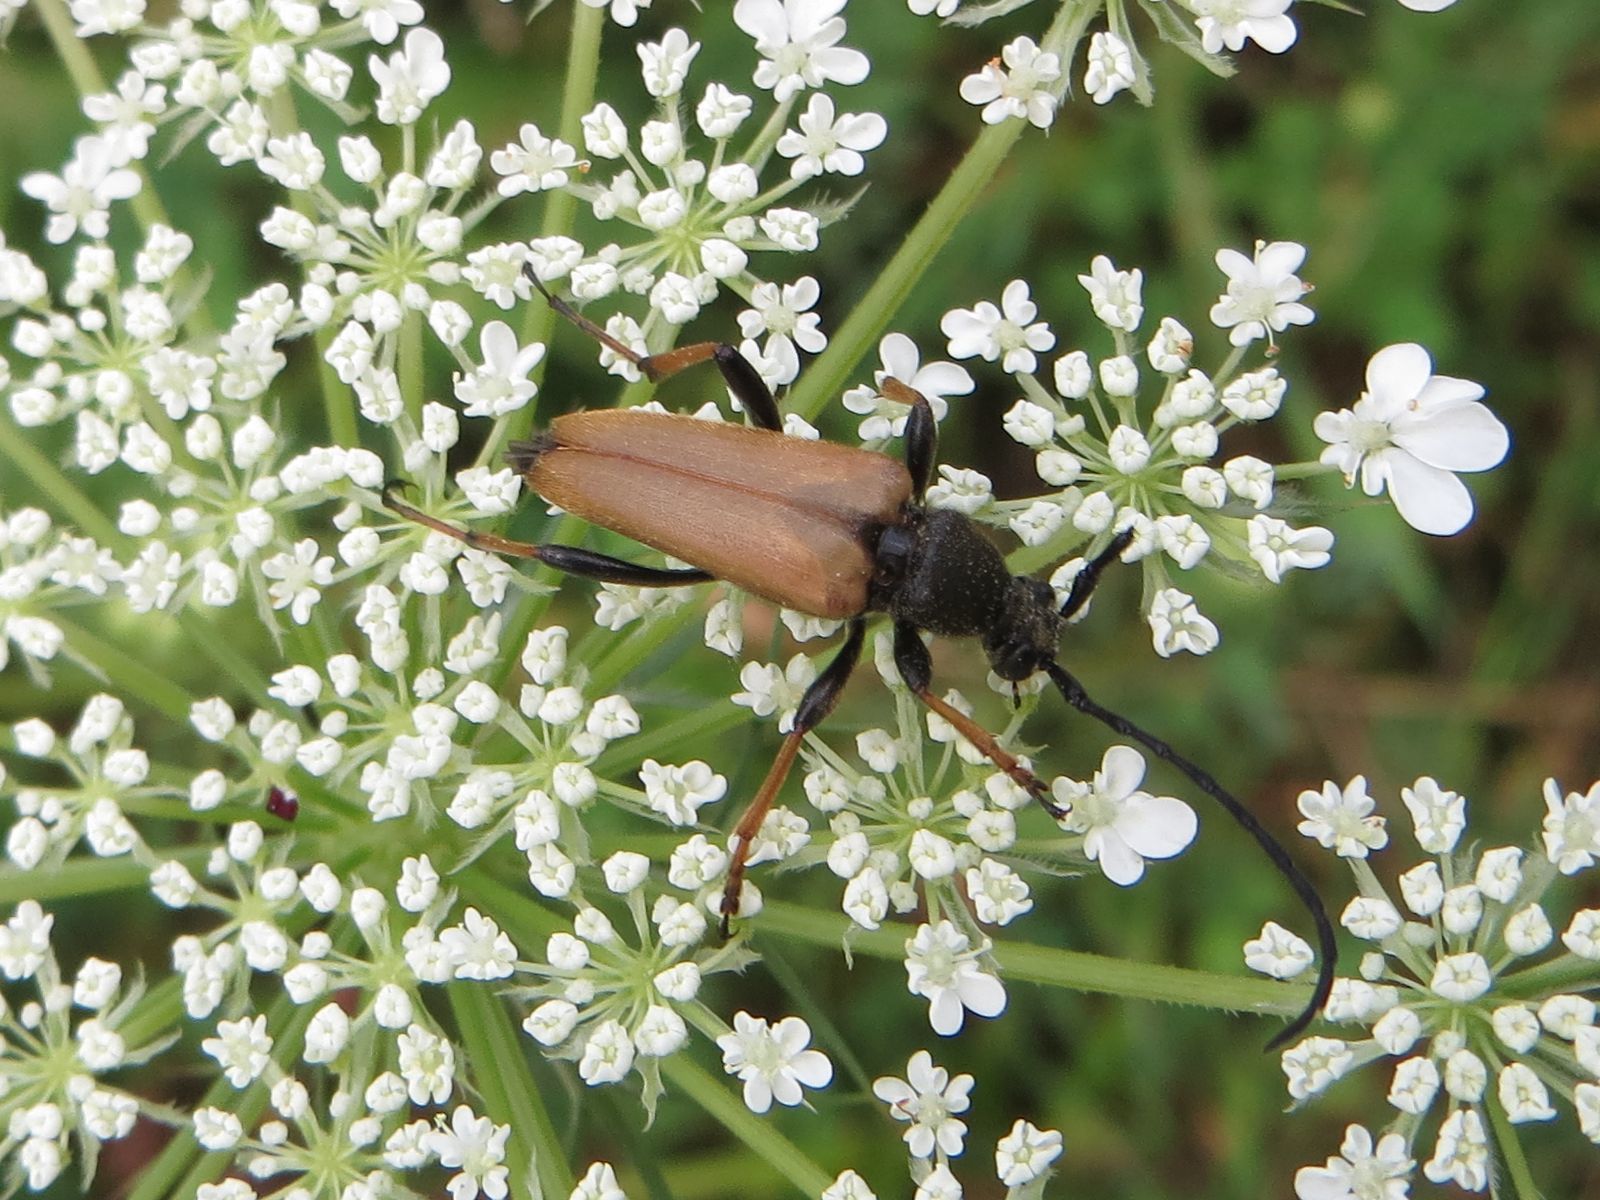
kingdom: Animalia
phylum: Arthropoda
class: Insecta
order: Coleoptera
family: Cerambycidae
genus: Stictoleptura
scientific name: Stictoleptura rubra
